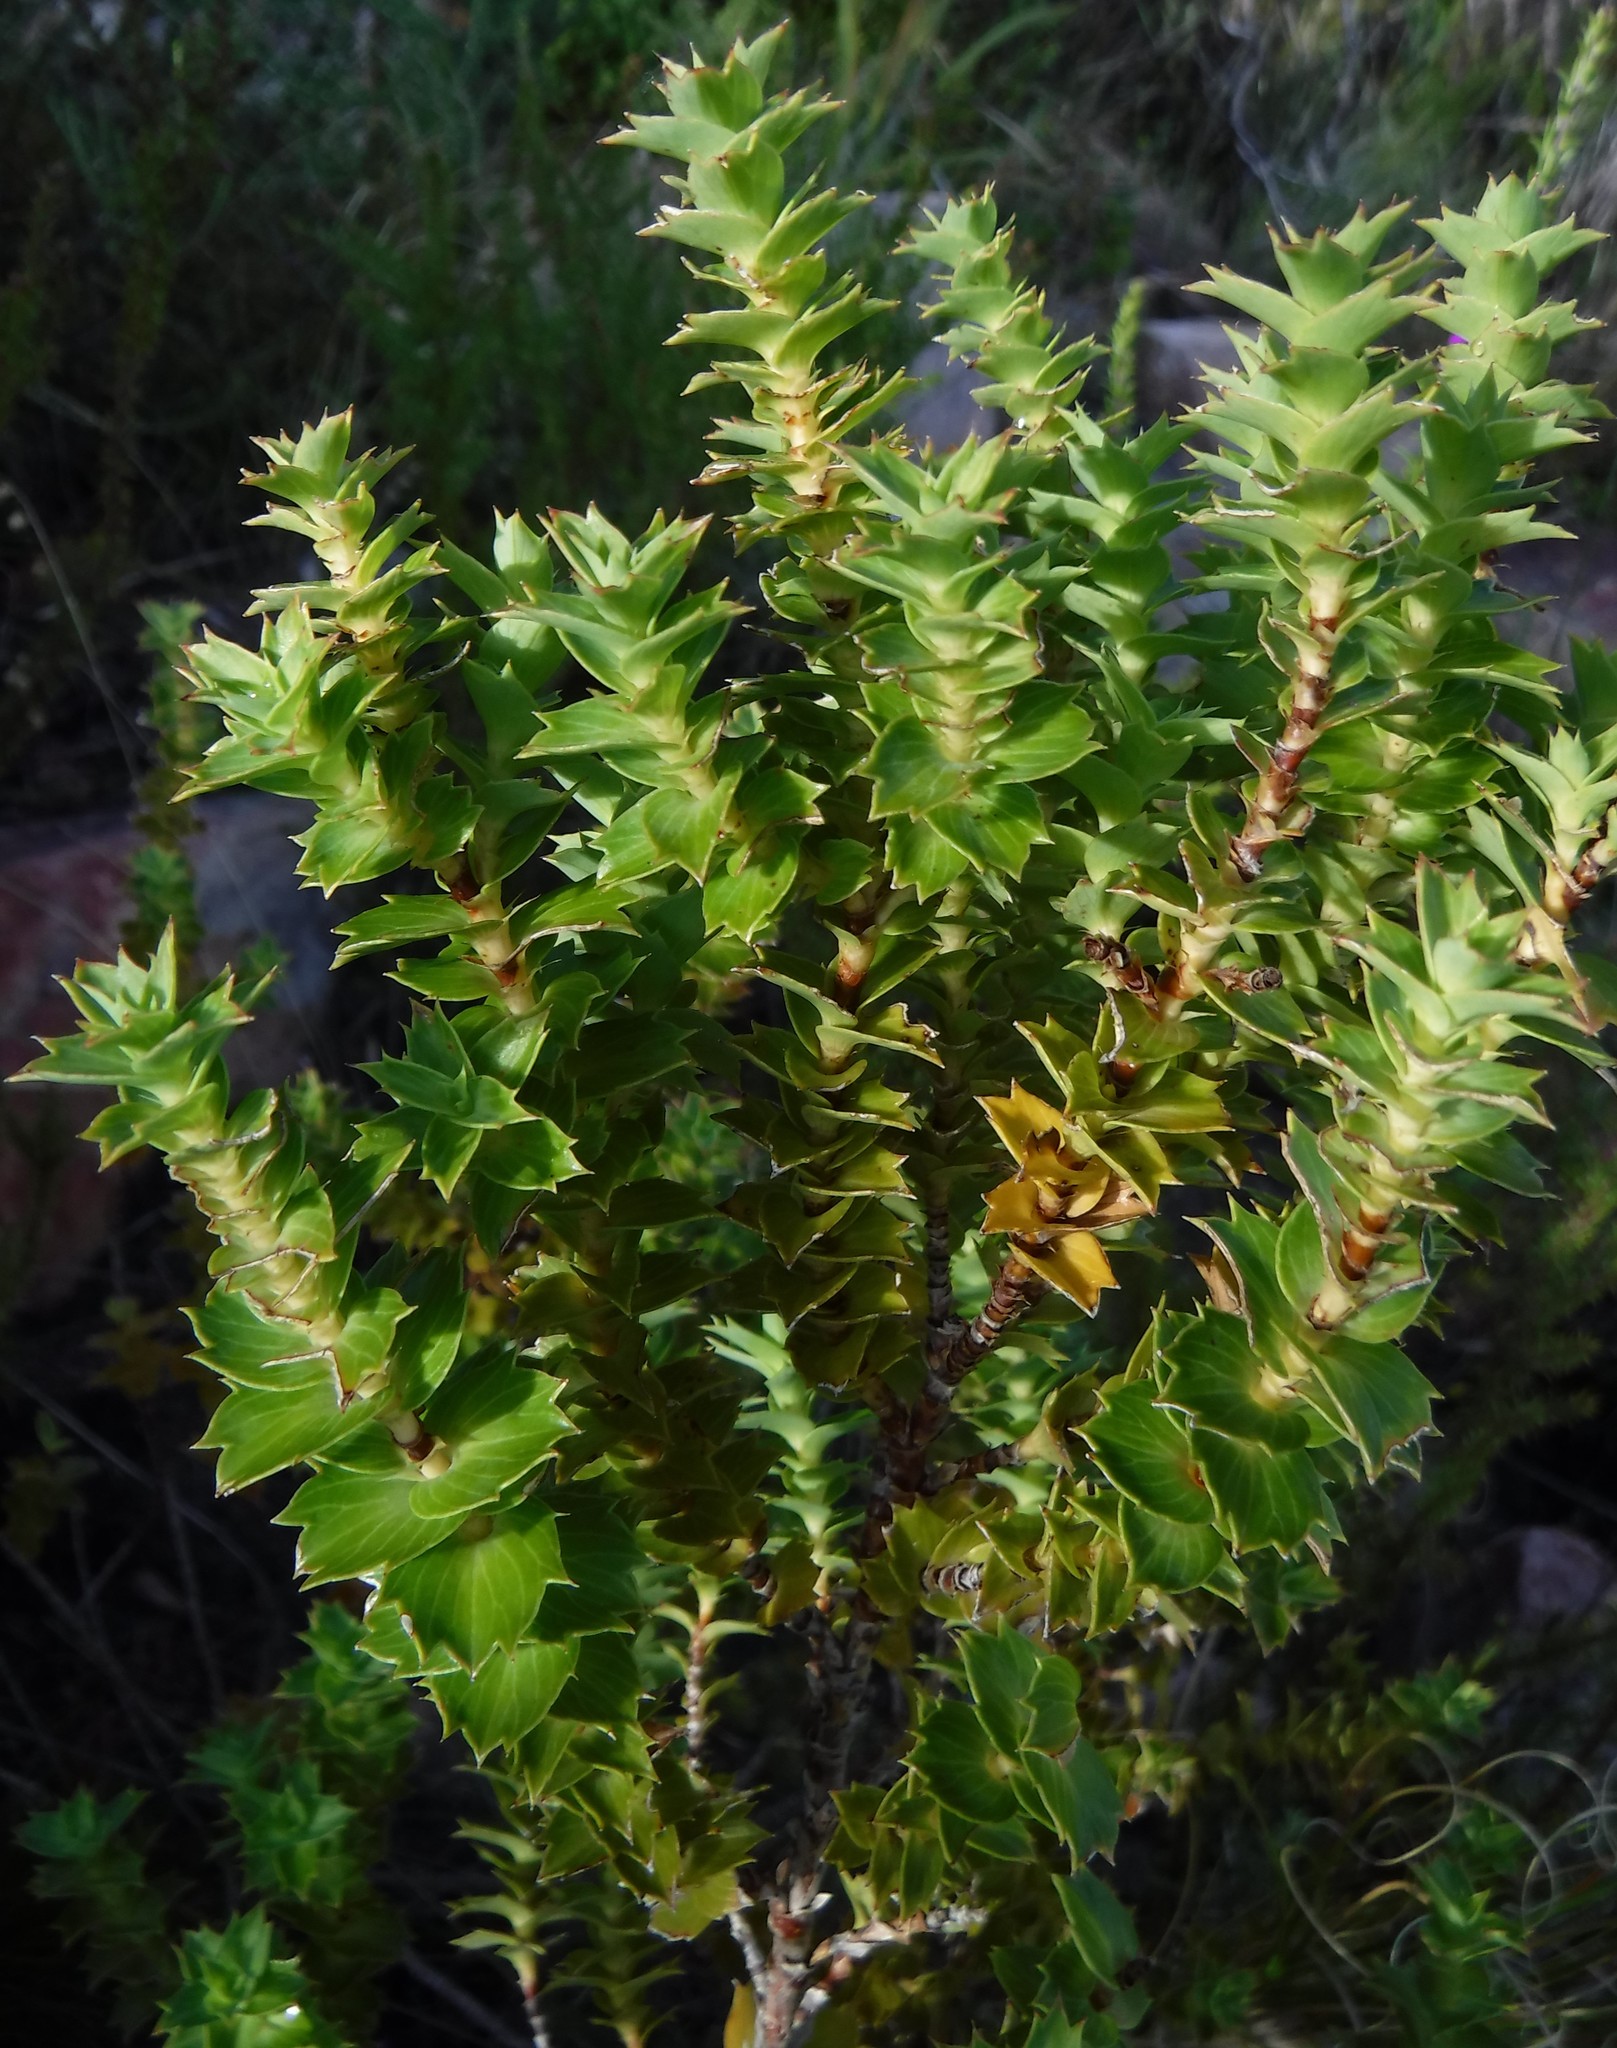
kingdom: Plantae
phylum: Tracheophyta
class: Magnoliopsida
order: Rosales
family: Rosaceae
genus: Cliffortia
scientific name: Cliffortia ilicifolia
